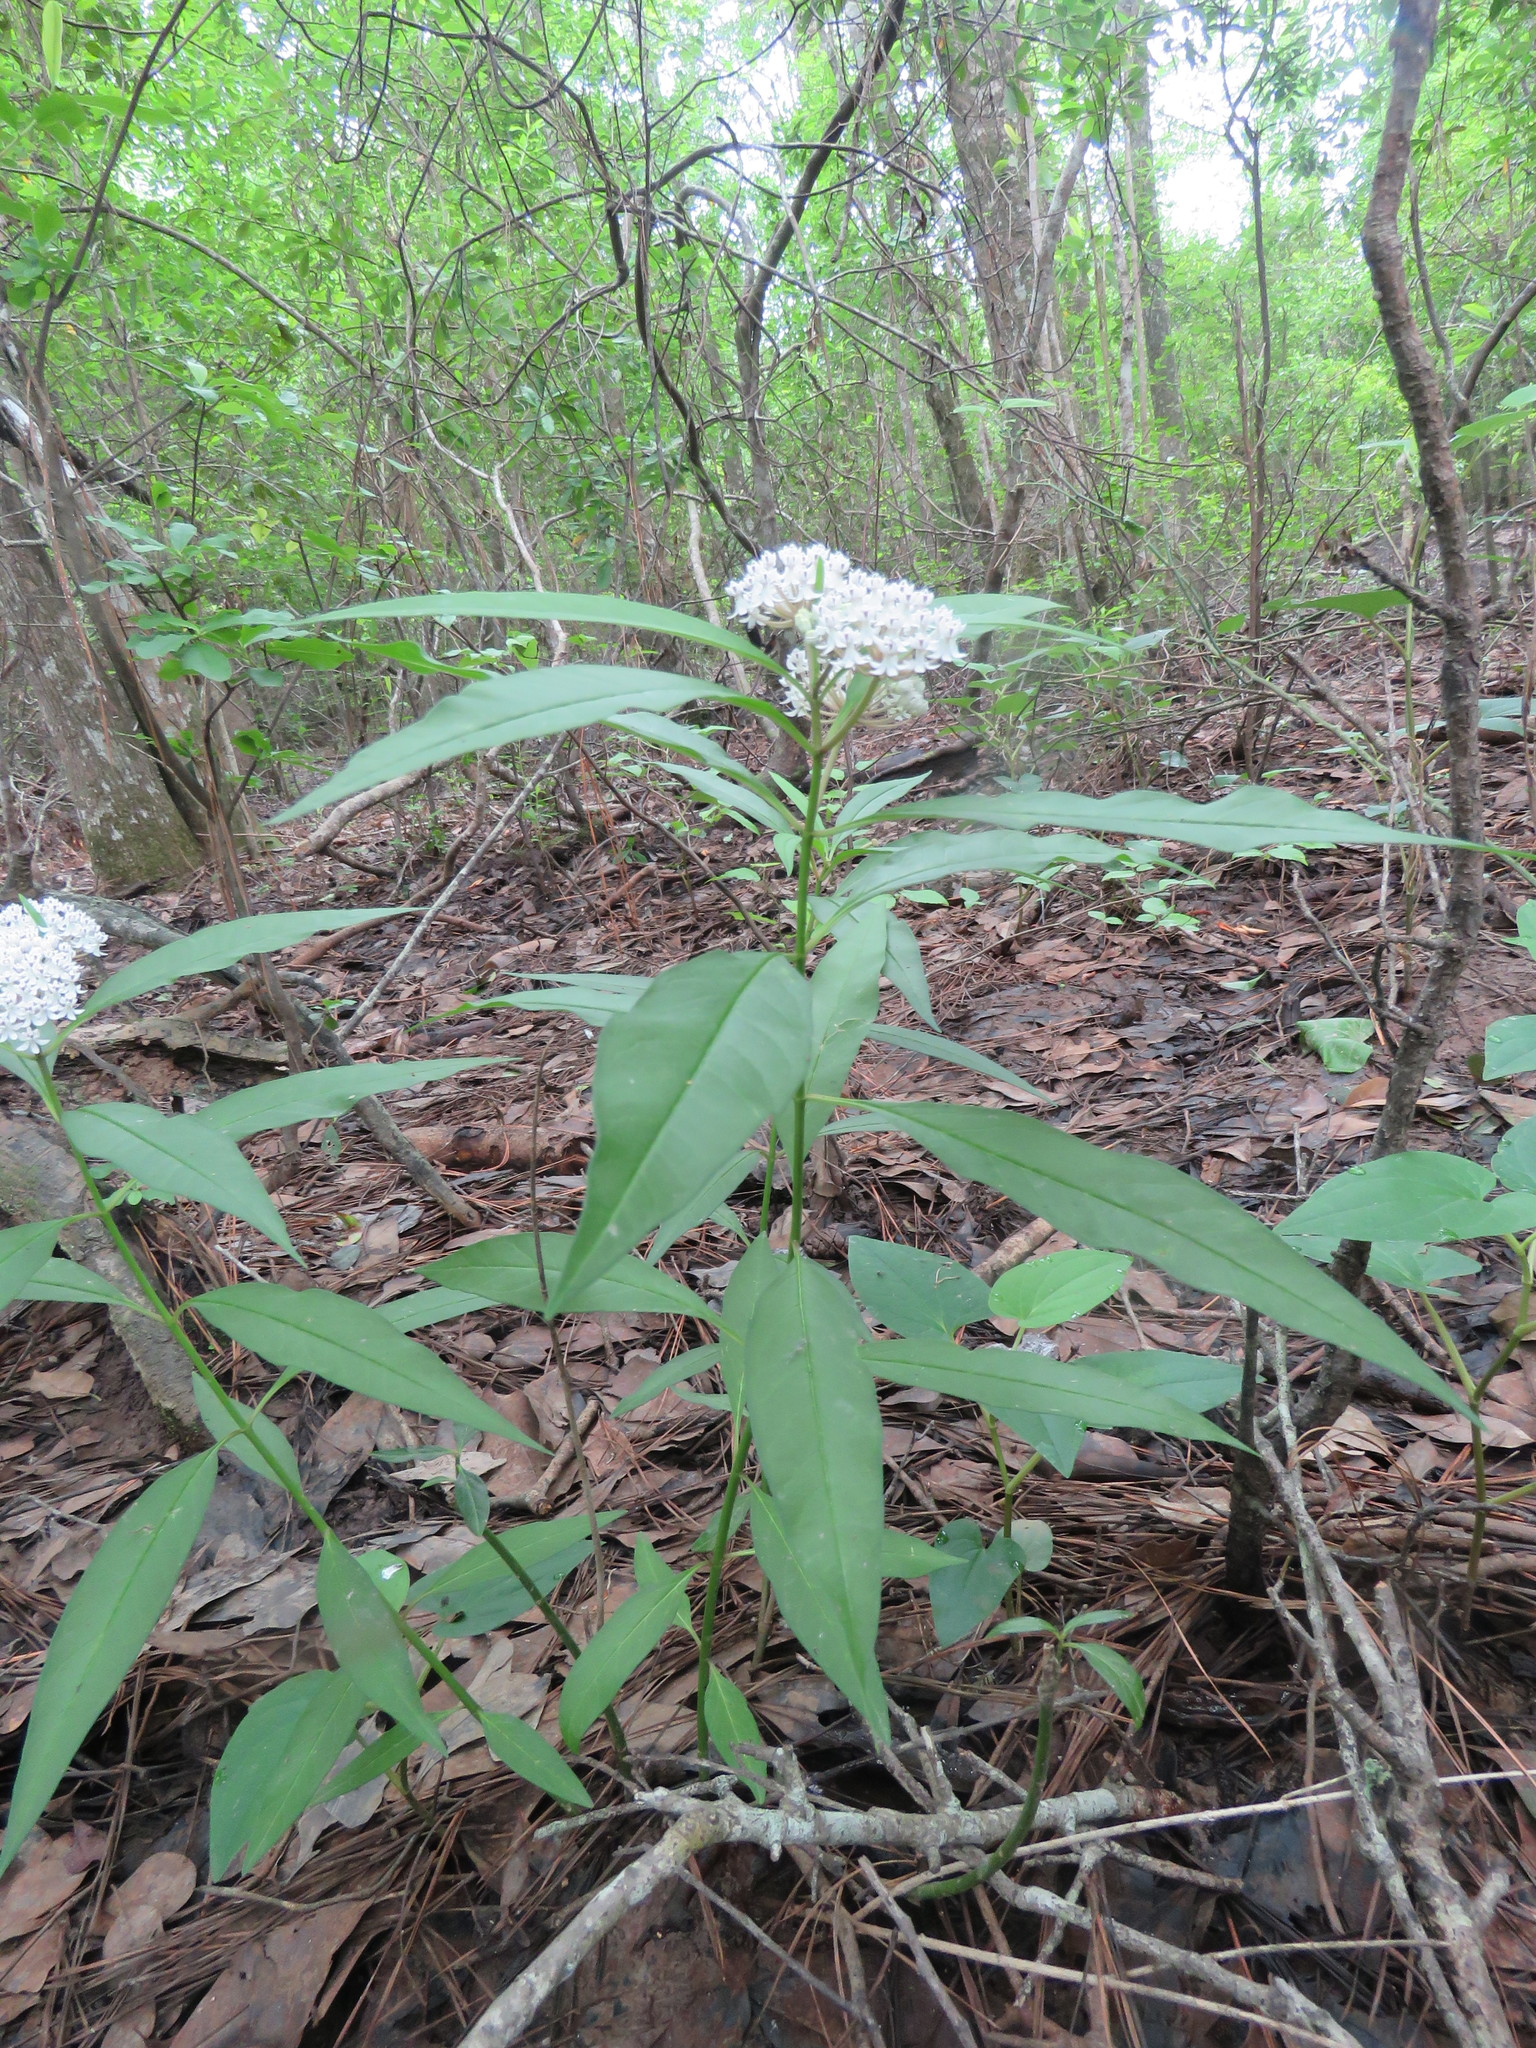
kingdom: Plantae
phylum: Tracheophyta
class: Magnoliopsida
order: Gentianales
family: Apocynaceae
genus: Asclepias
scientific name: Asclepias perennis
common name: Smooth-seed milkweed
